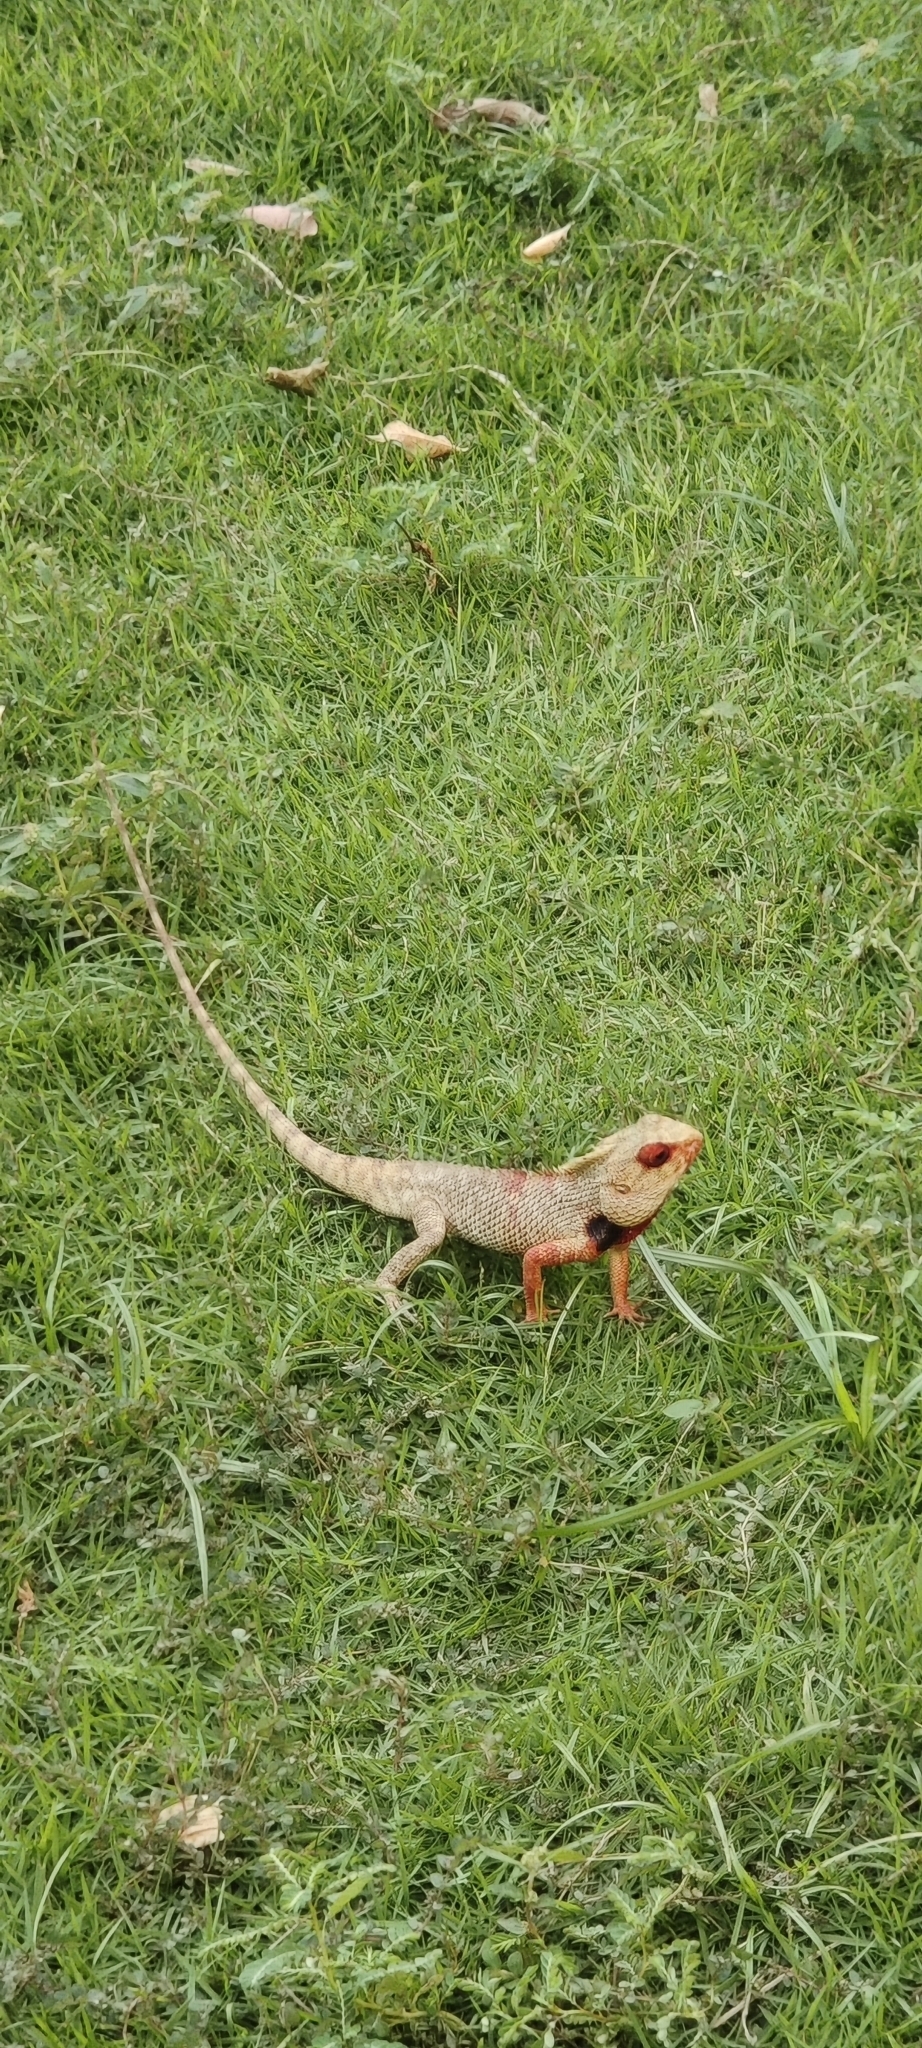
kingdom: Animalia
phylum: Chordata
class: Squamata
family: Agamidae
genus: Calotes
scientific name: Calotes versicolor
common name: Oriental garden lizard
